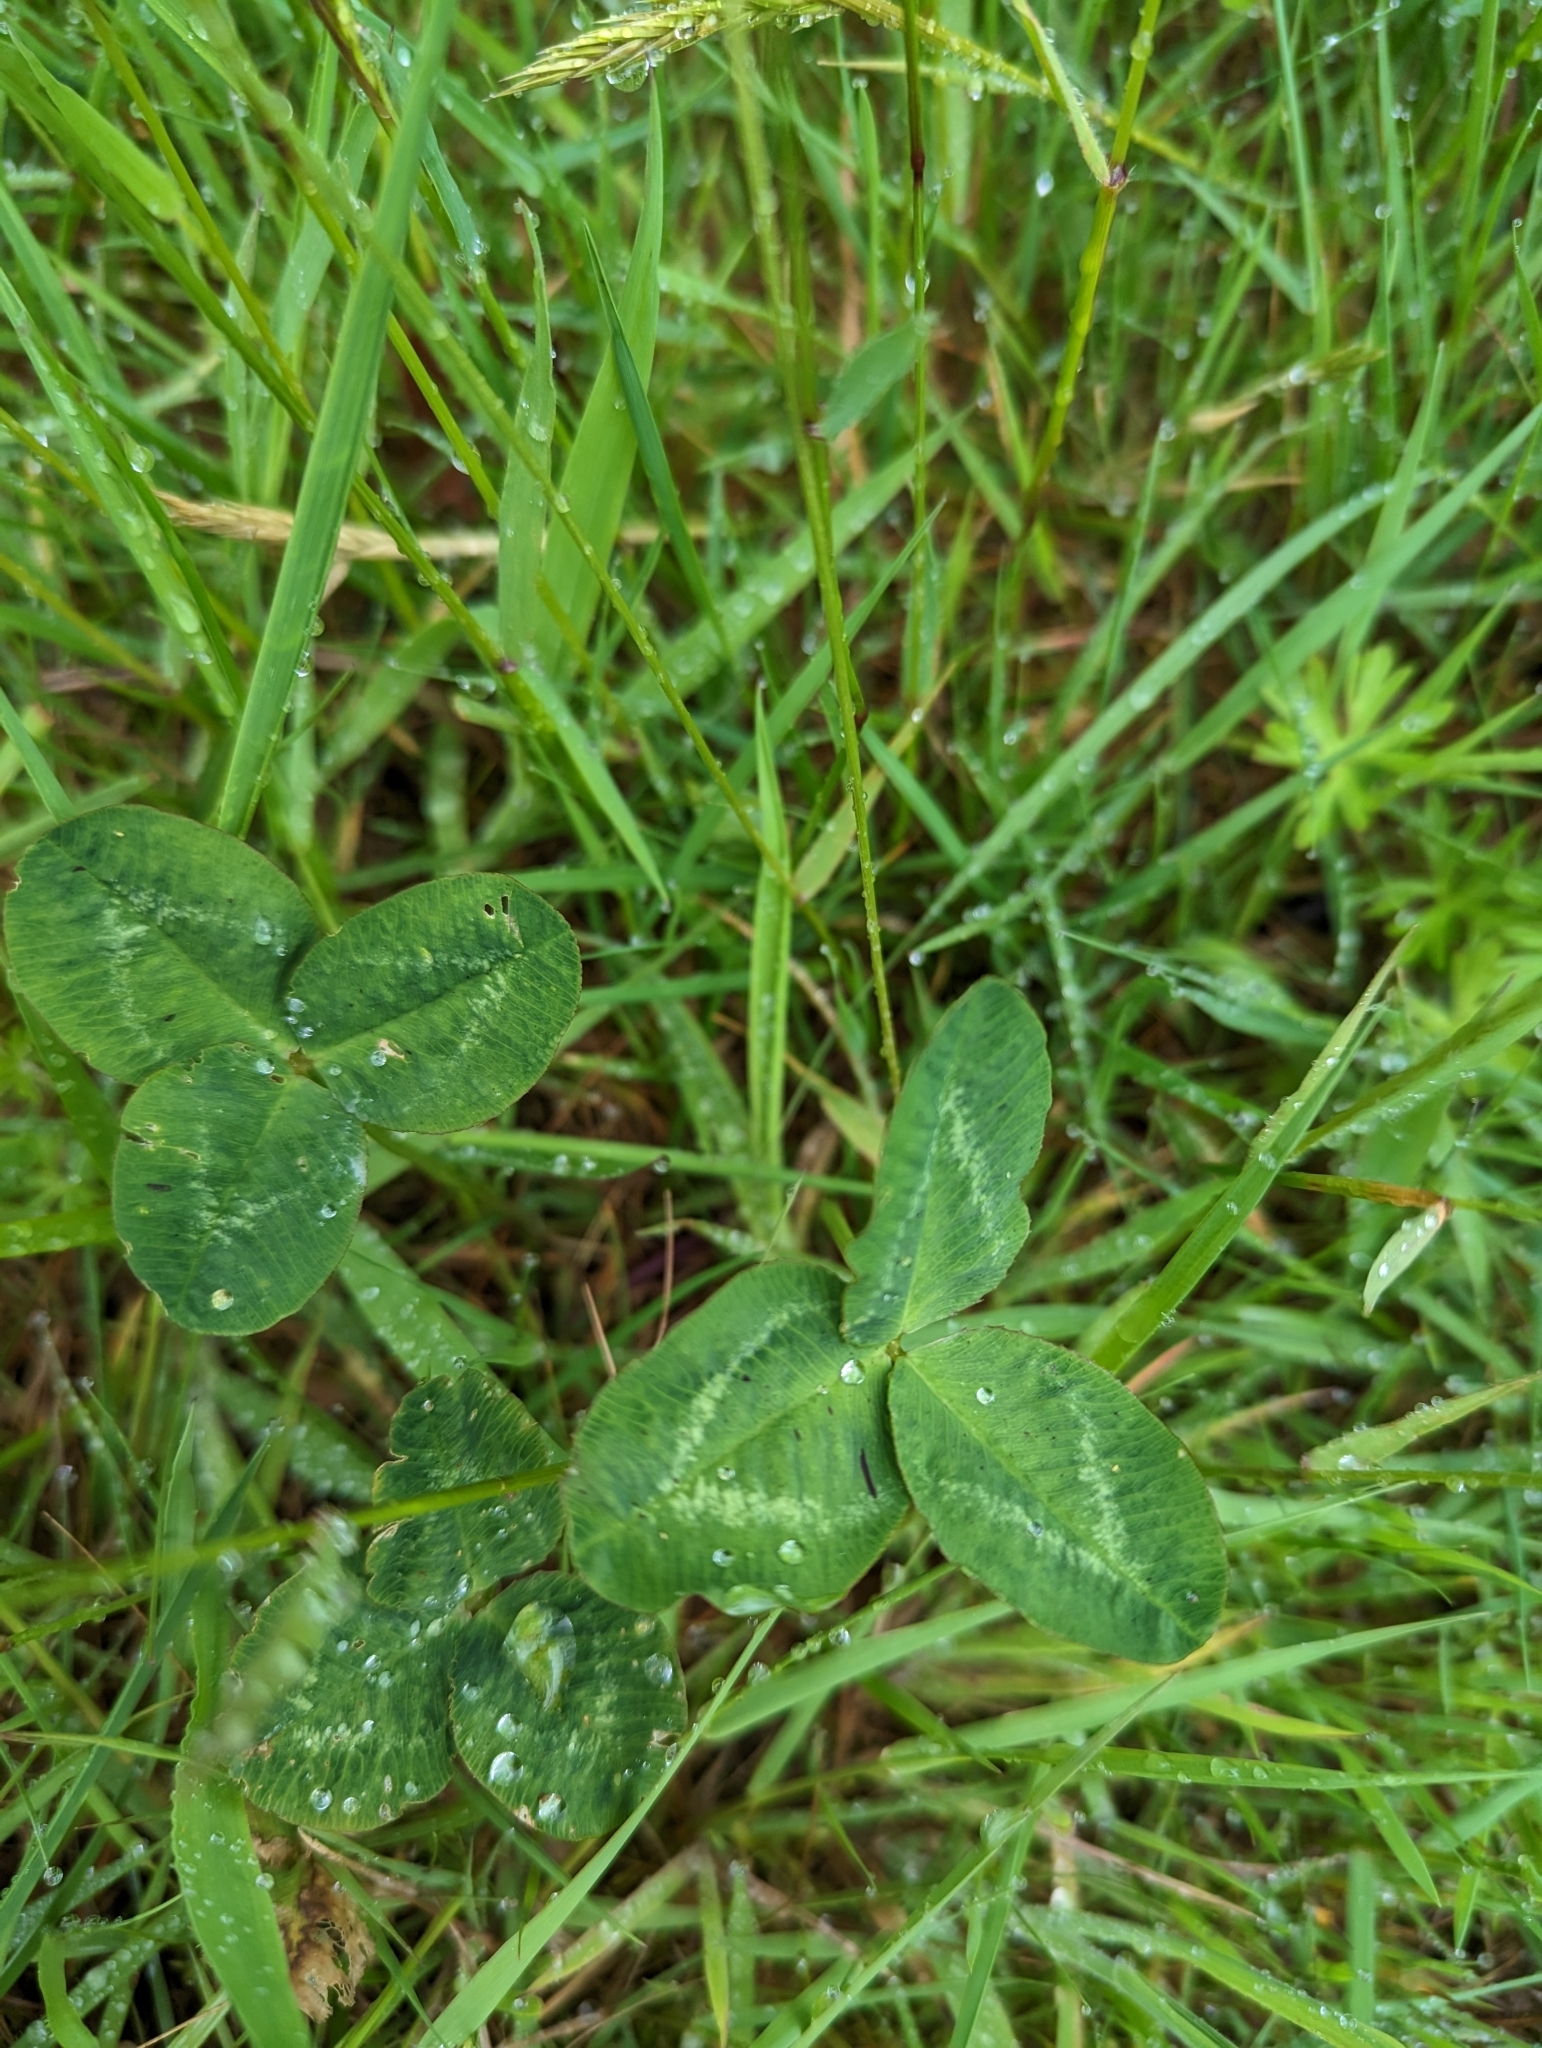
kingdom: Plantae
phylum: Tracheophyta
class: Magnoliopsida
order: Fabales
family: Fabaceae
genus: Trifolium
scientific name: Trifolium repens
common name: White clover
